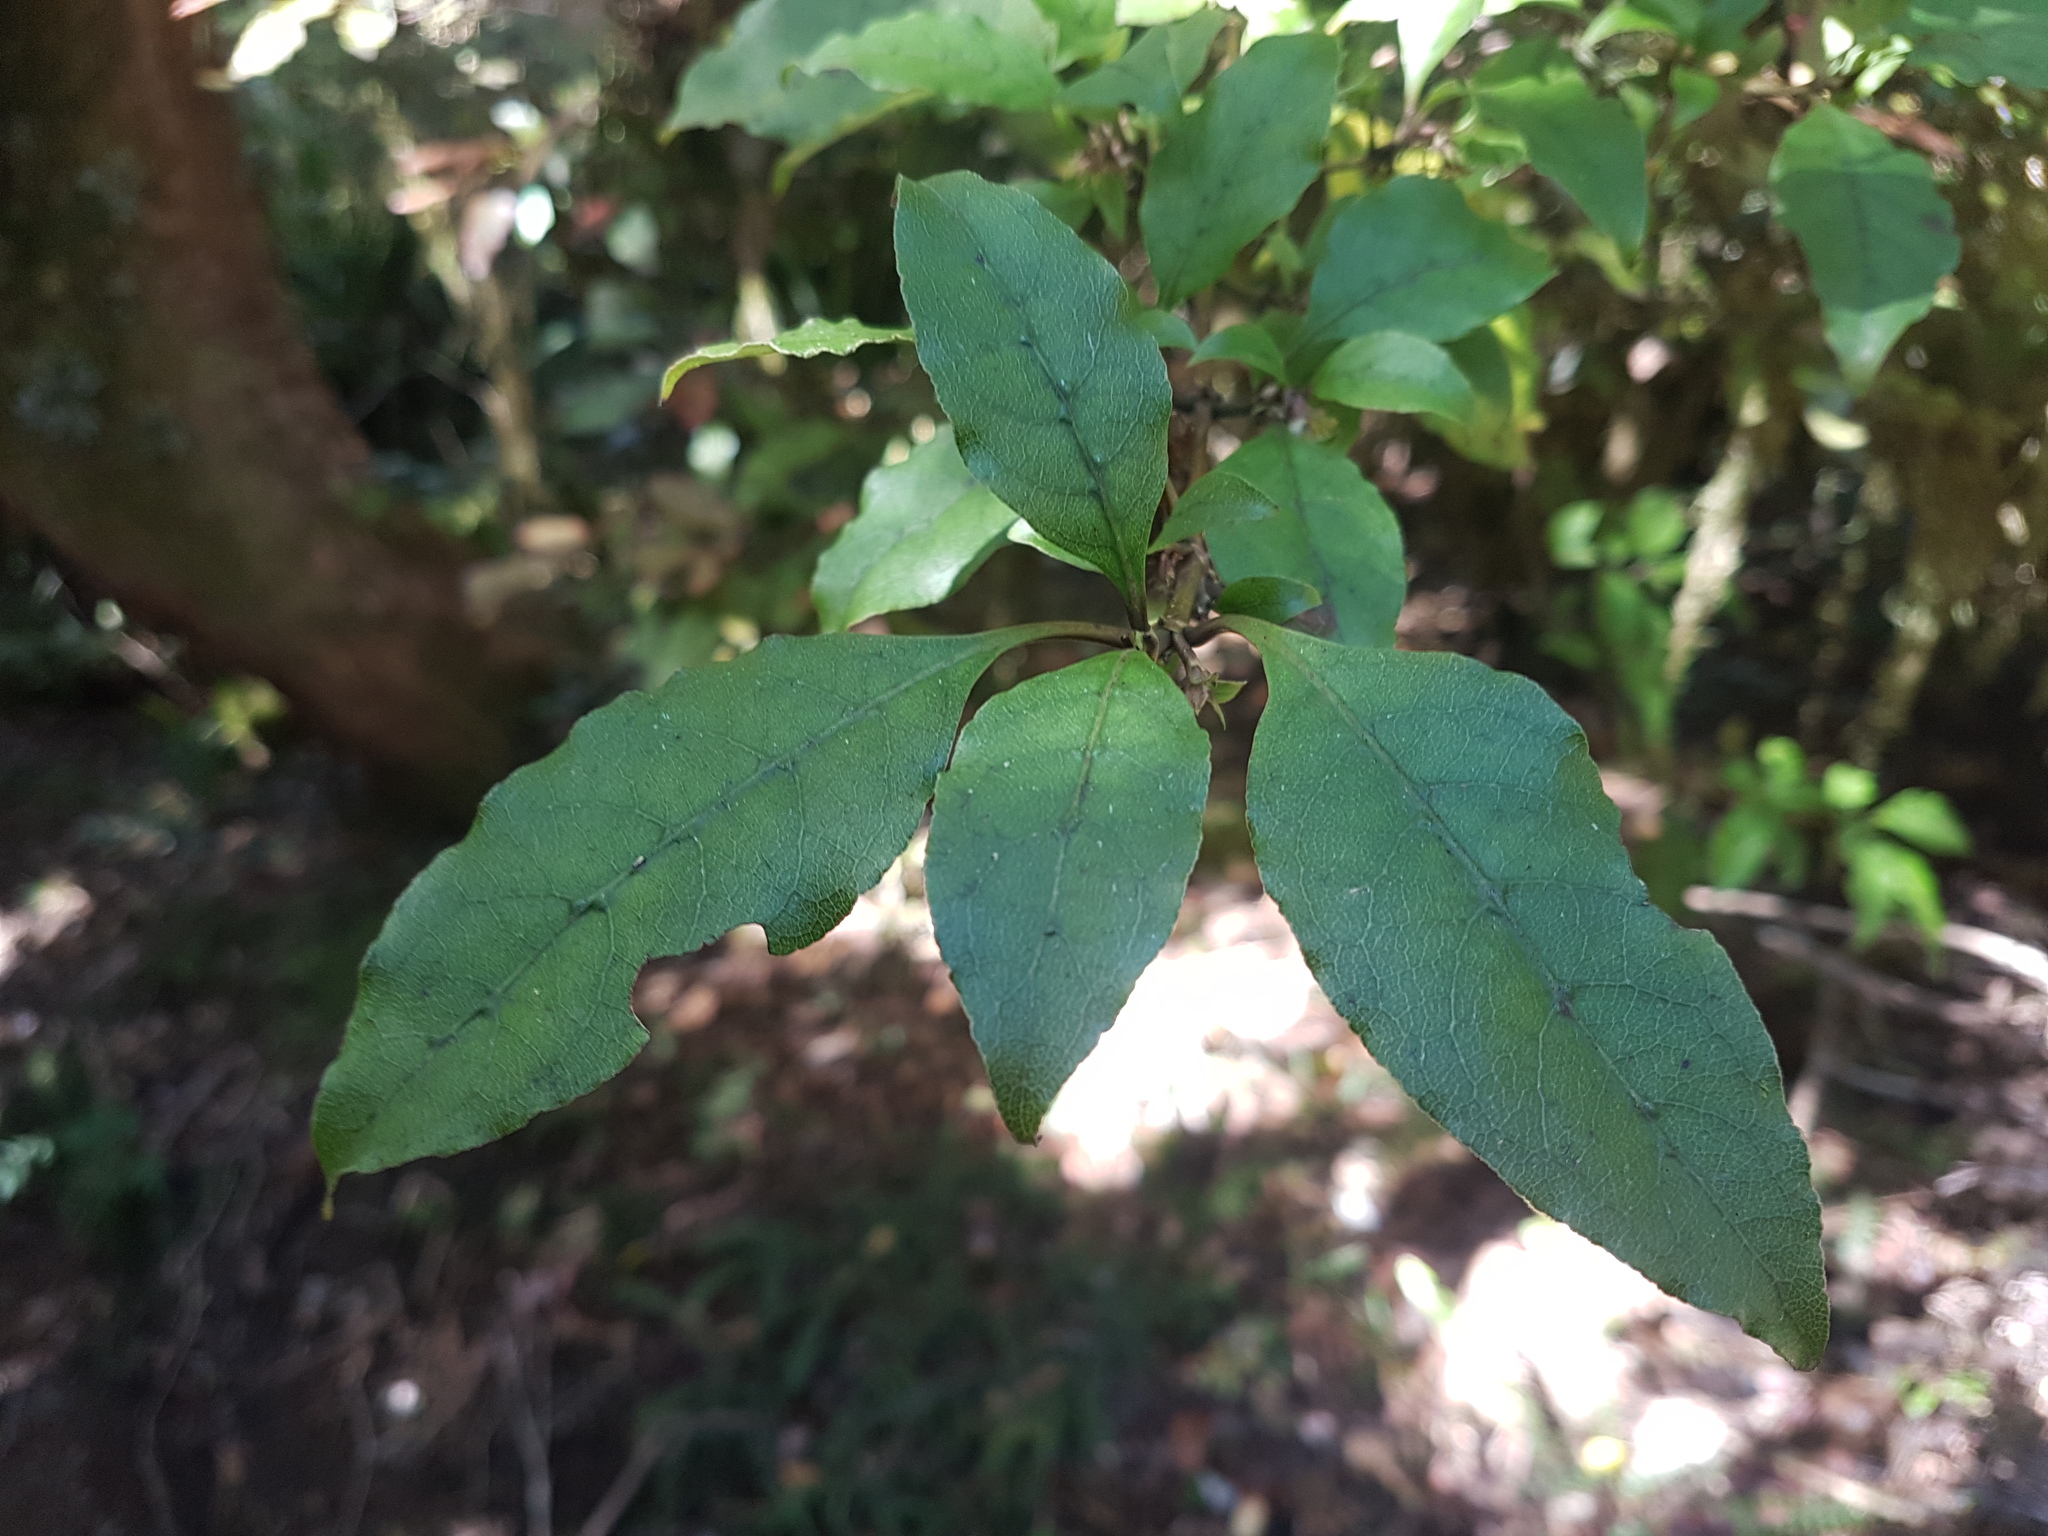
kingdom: Plantae
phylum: Tracheophyta
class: Magnoliopsida
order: Gentianales
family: Rubiaceae
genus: Coprosma
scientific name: Coprosma tenuifolia
